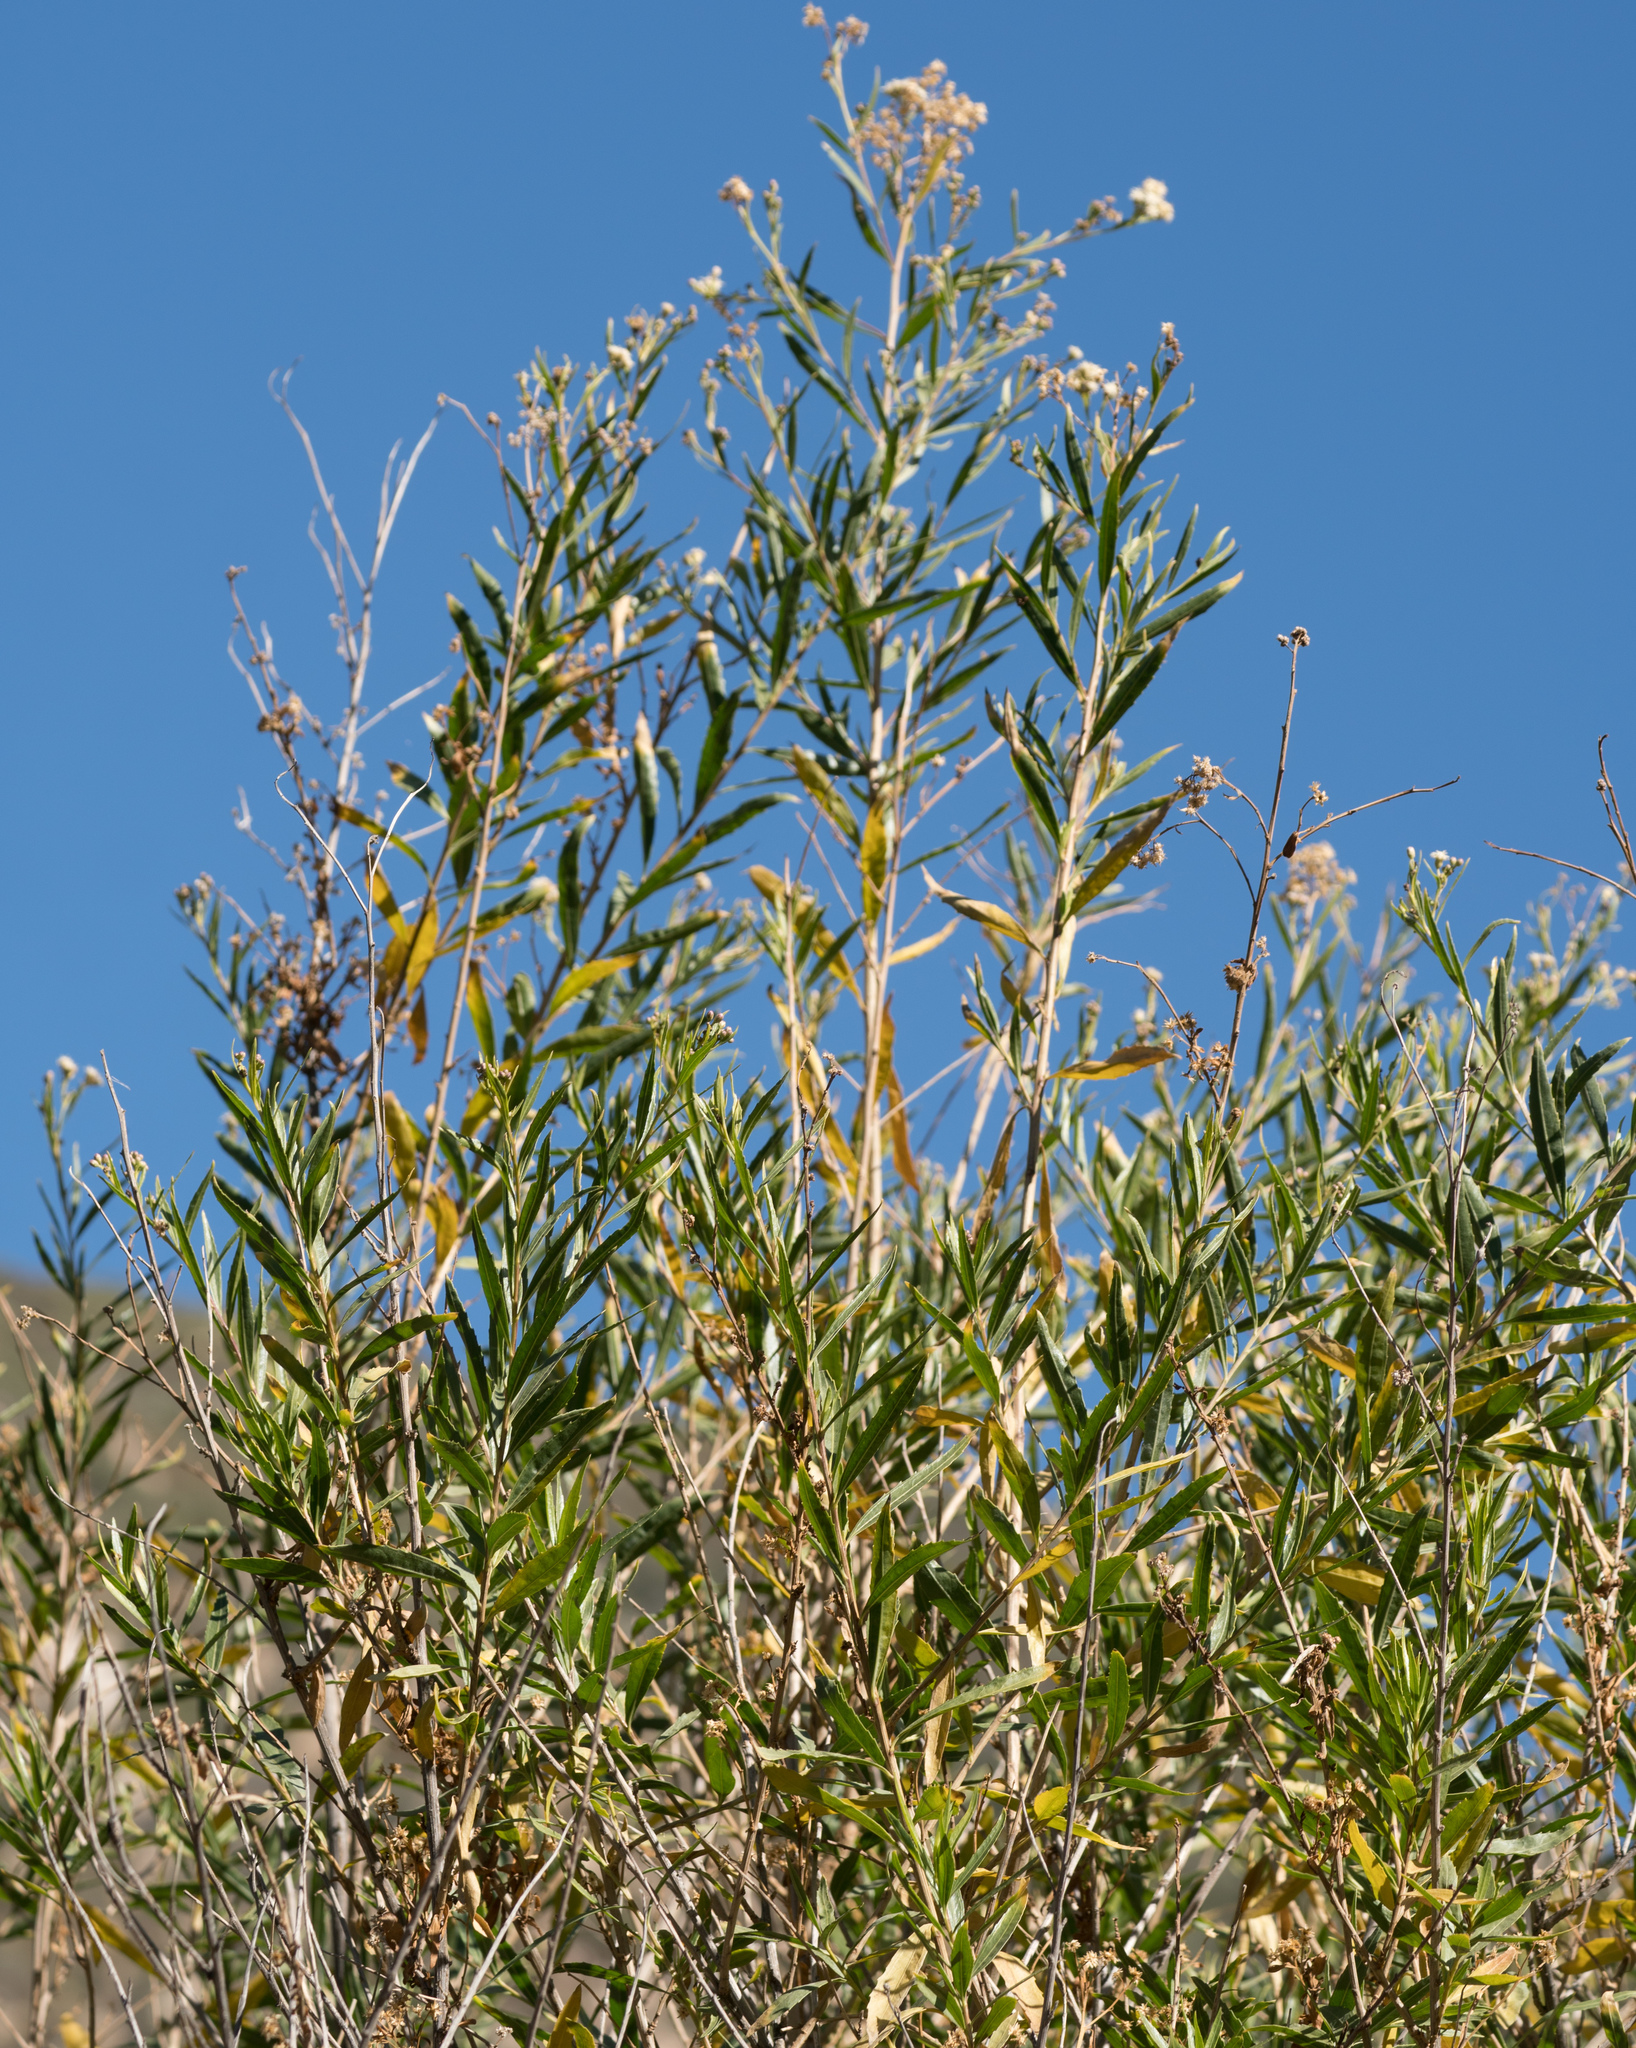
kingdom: Plantae
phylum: Tracheophyta
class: Magnoliopsida
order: Asterales
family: Asteraceae
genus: Baccharis
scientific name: Baccharis salicifolia
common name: Sticky baccharis
